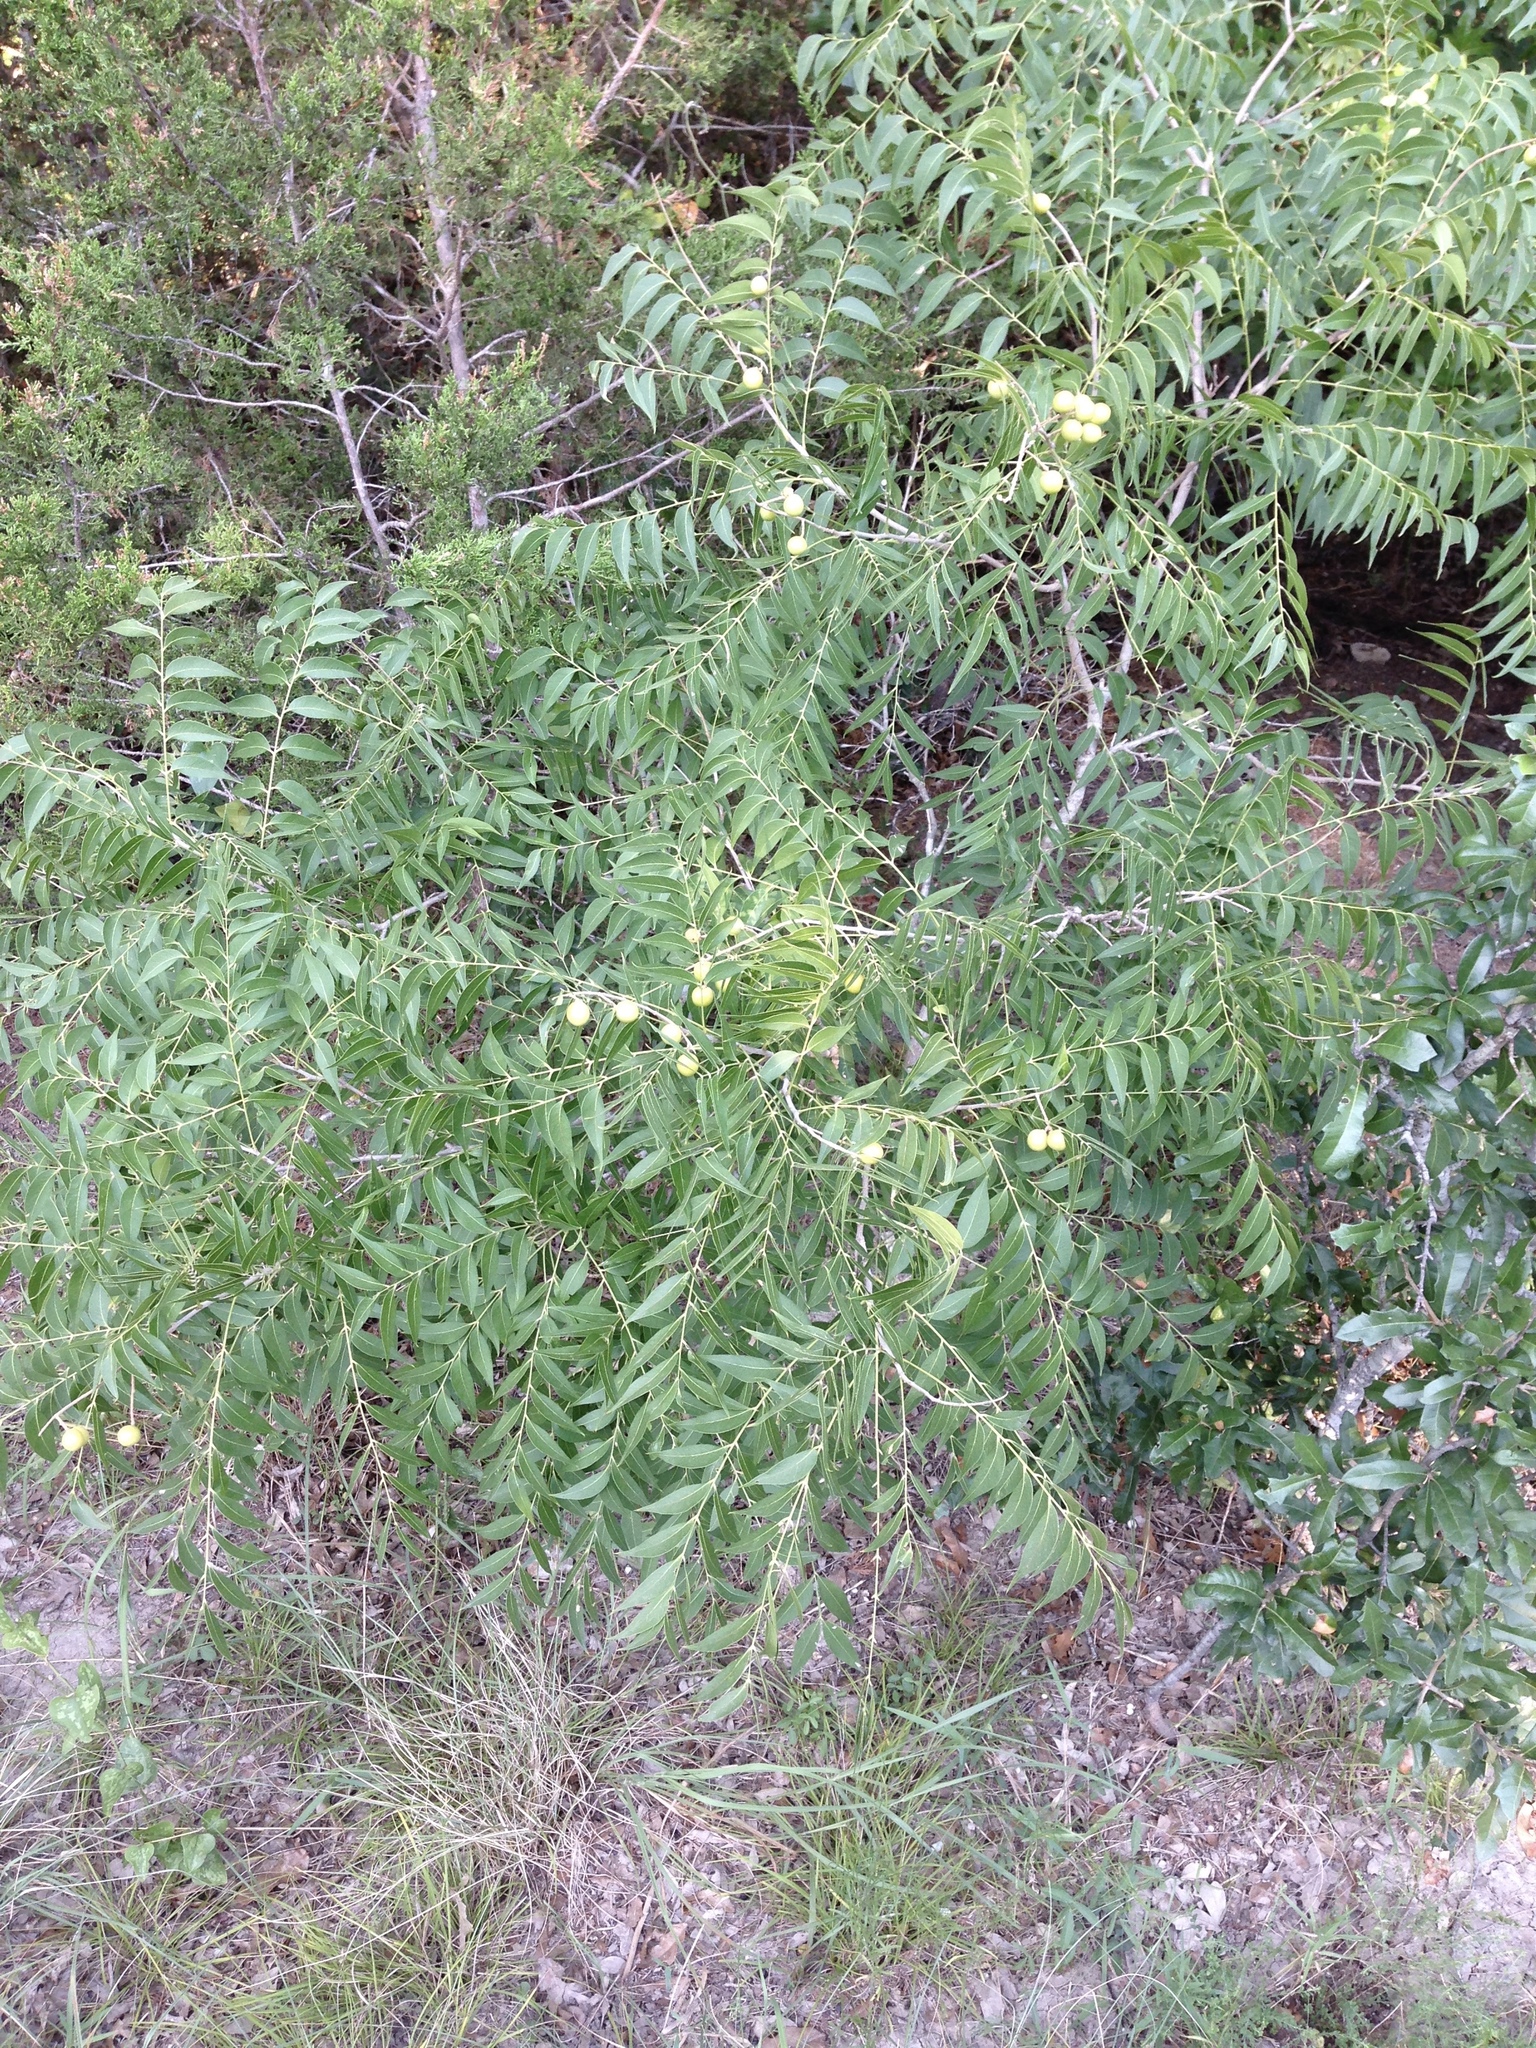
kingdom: Plantae
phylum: Tracheophyta
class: Magnoliopsida
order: Sapindales
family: Sapindaceae
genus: Sapindus
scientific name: Sapindus drummondii
